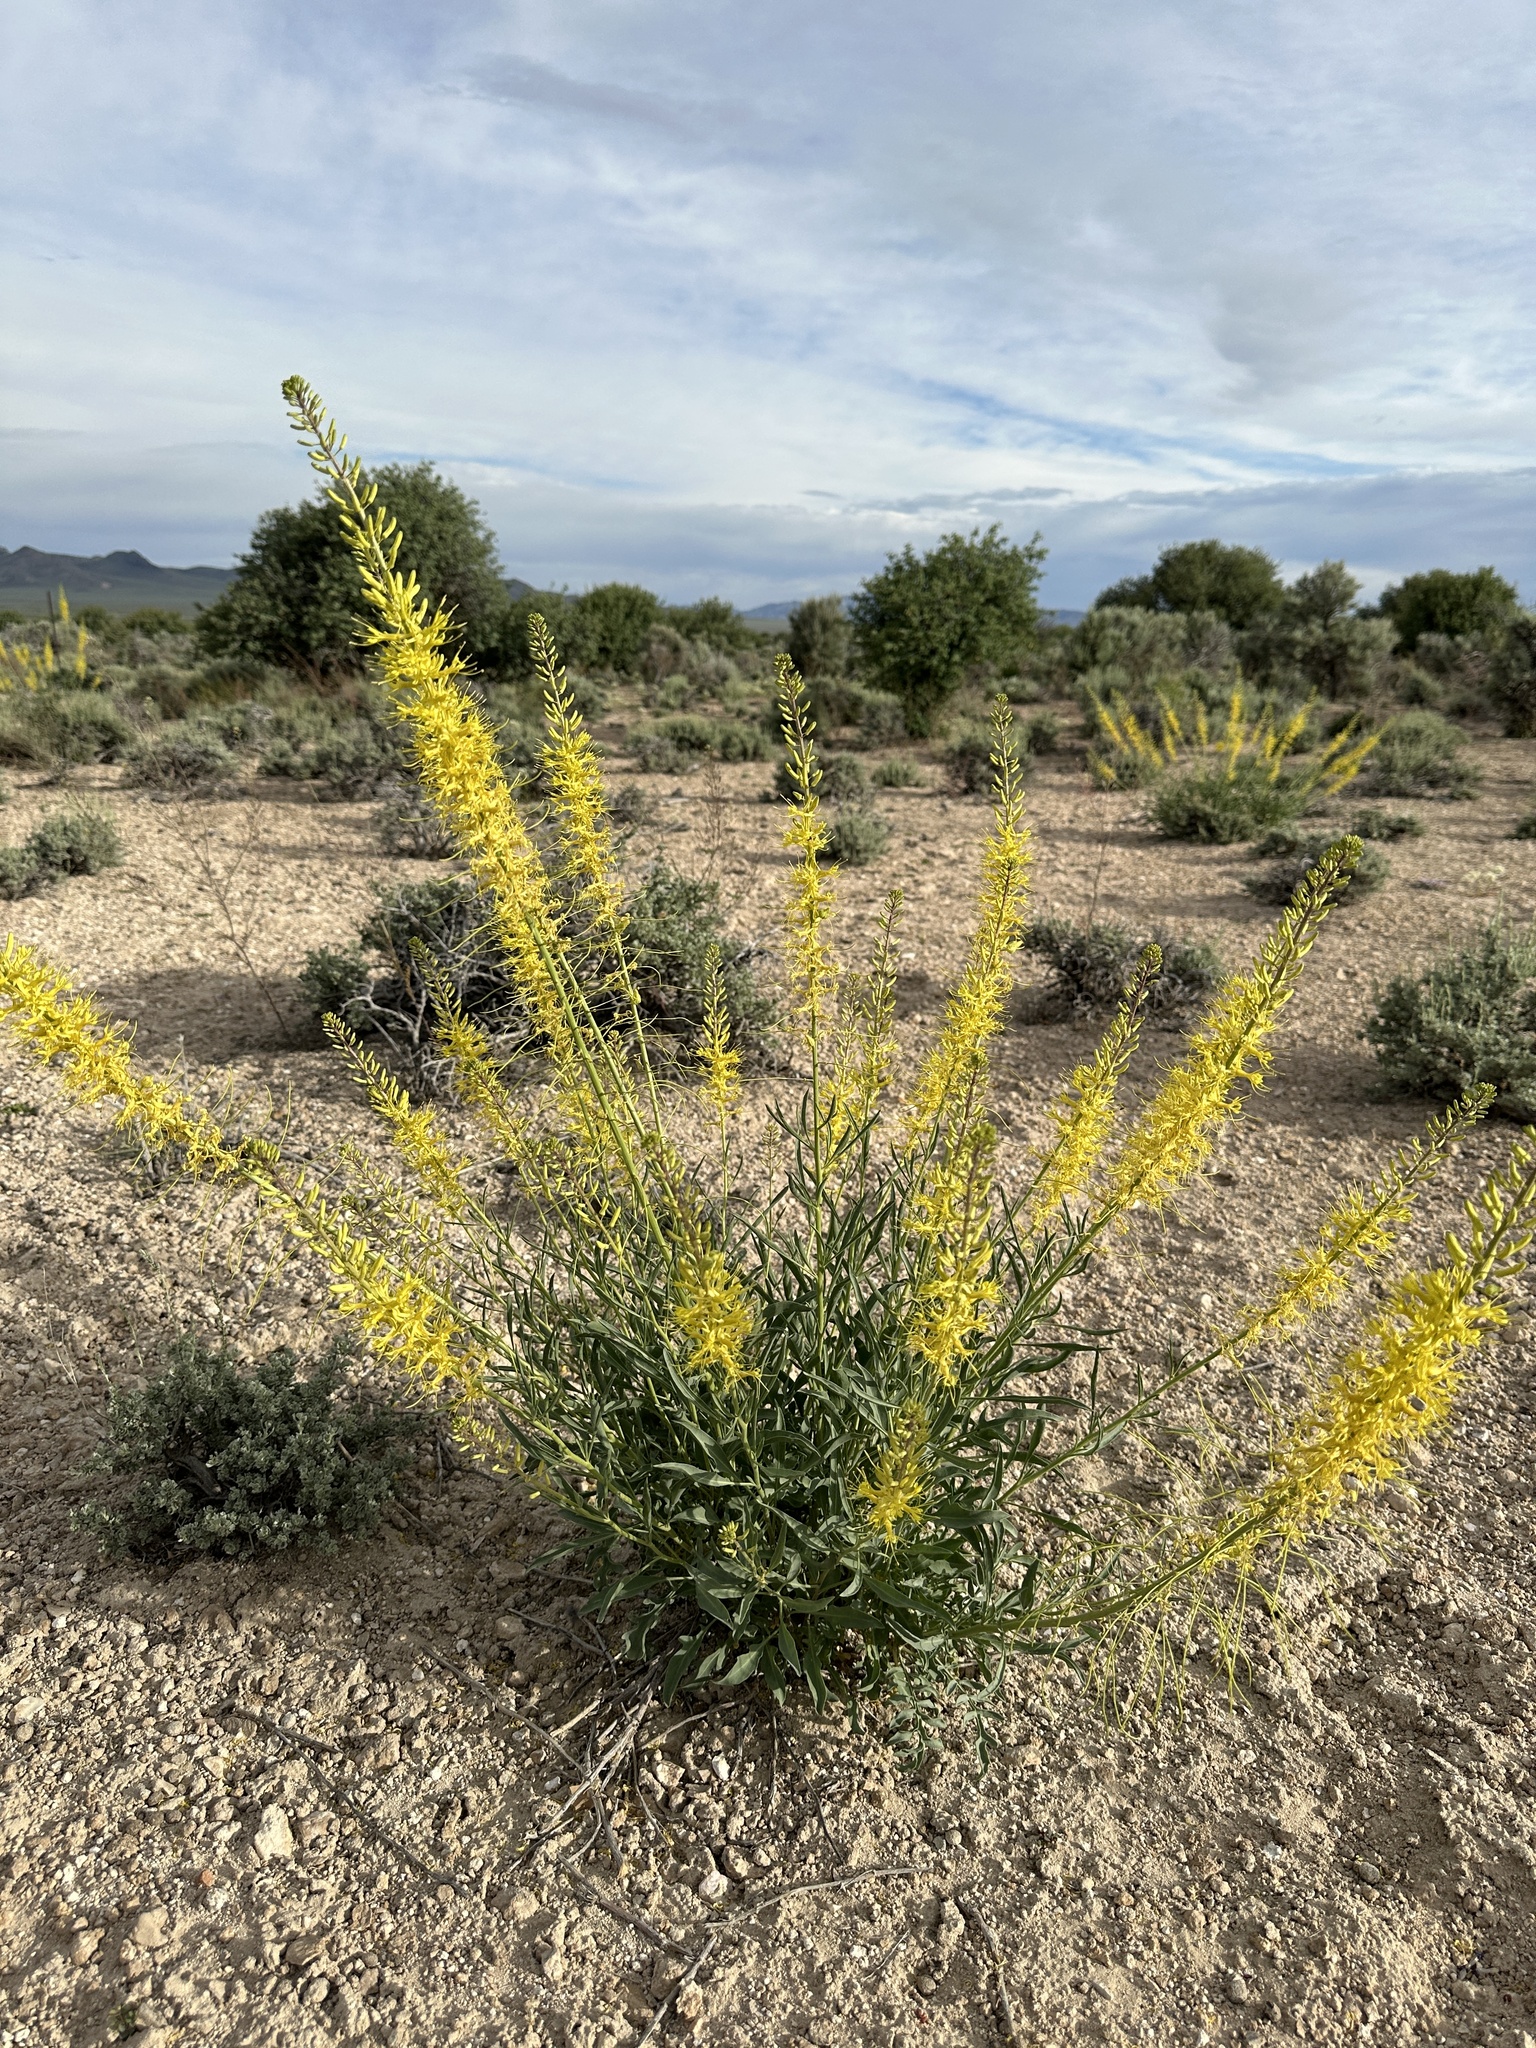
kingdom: Plantae
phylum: Tracheophyta
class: Magnoliopsida
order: Brassicales
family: Brassicaceae
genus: Stanleya
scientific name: Stanleya pinnata
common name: Prince's-plume
